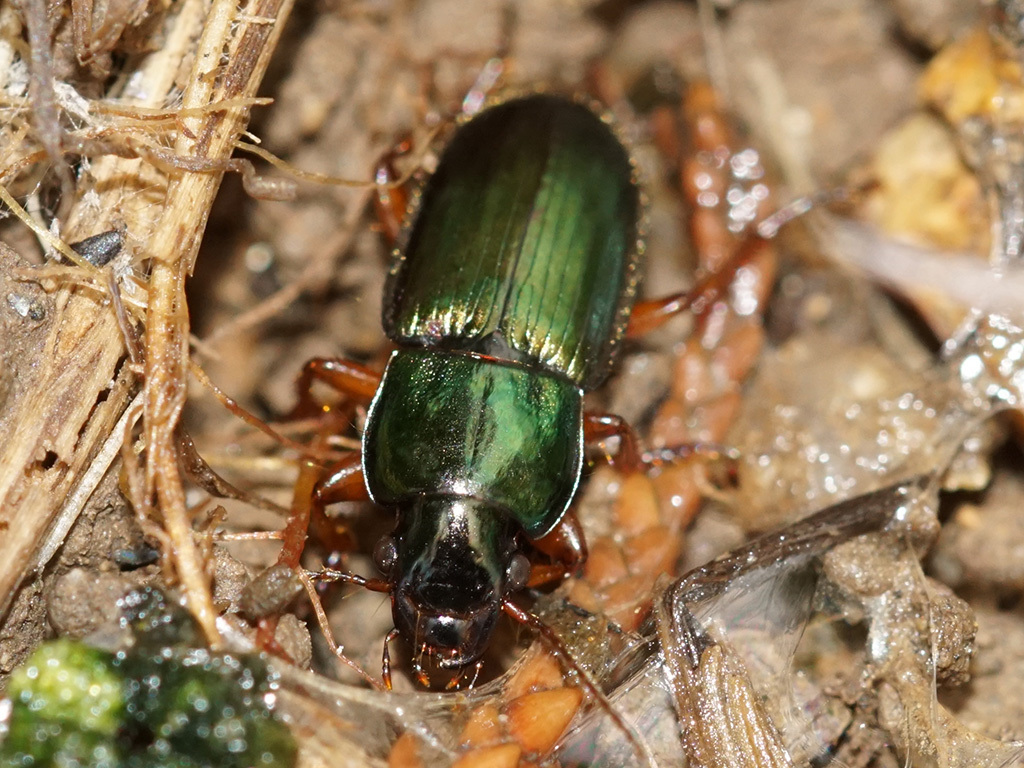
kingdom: Animalia
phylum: Arthropoda
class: Insecta
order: Coleoptera
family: Carabidae
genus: Harpalus
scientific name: Harpalus affinis
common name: Polychrome harp ground beetle
